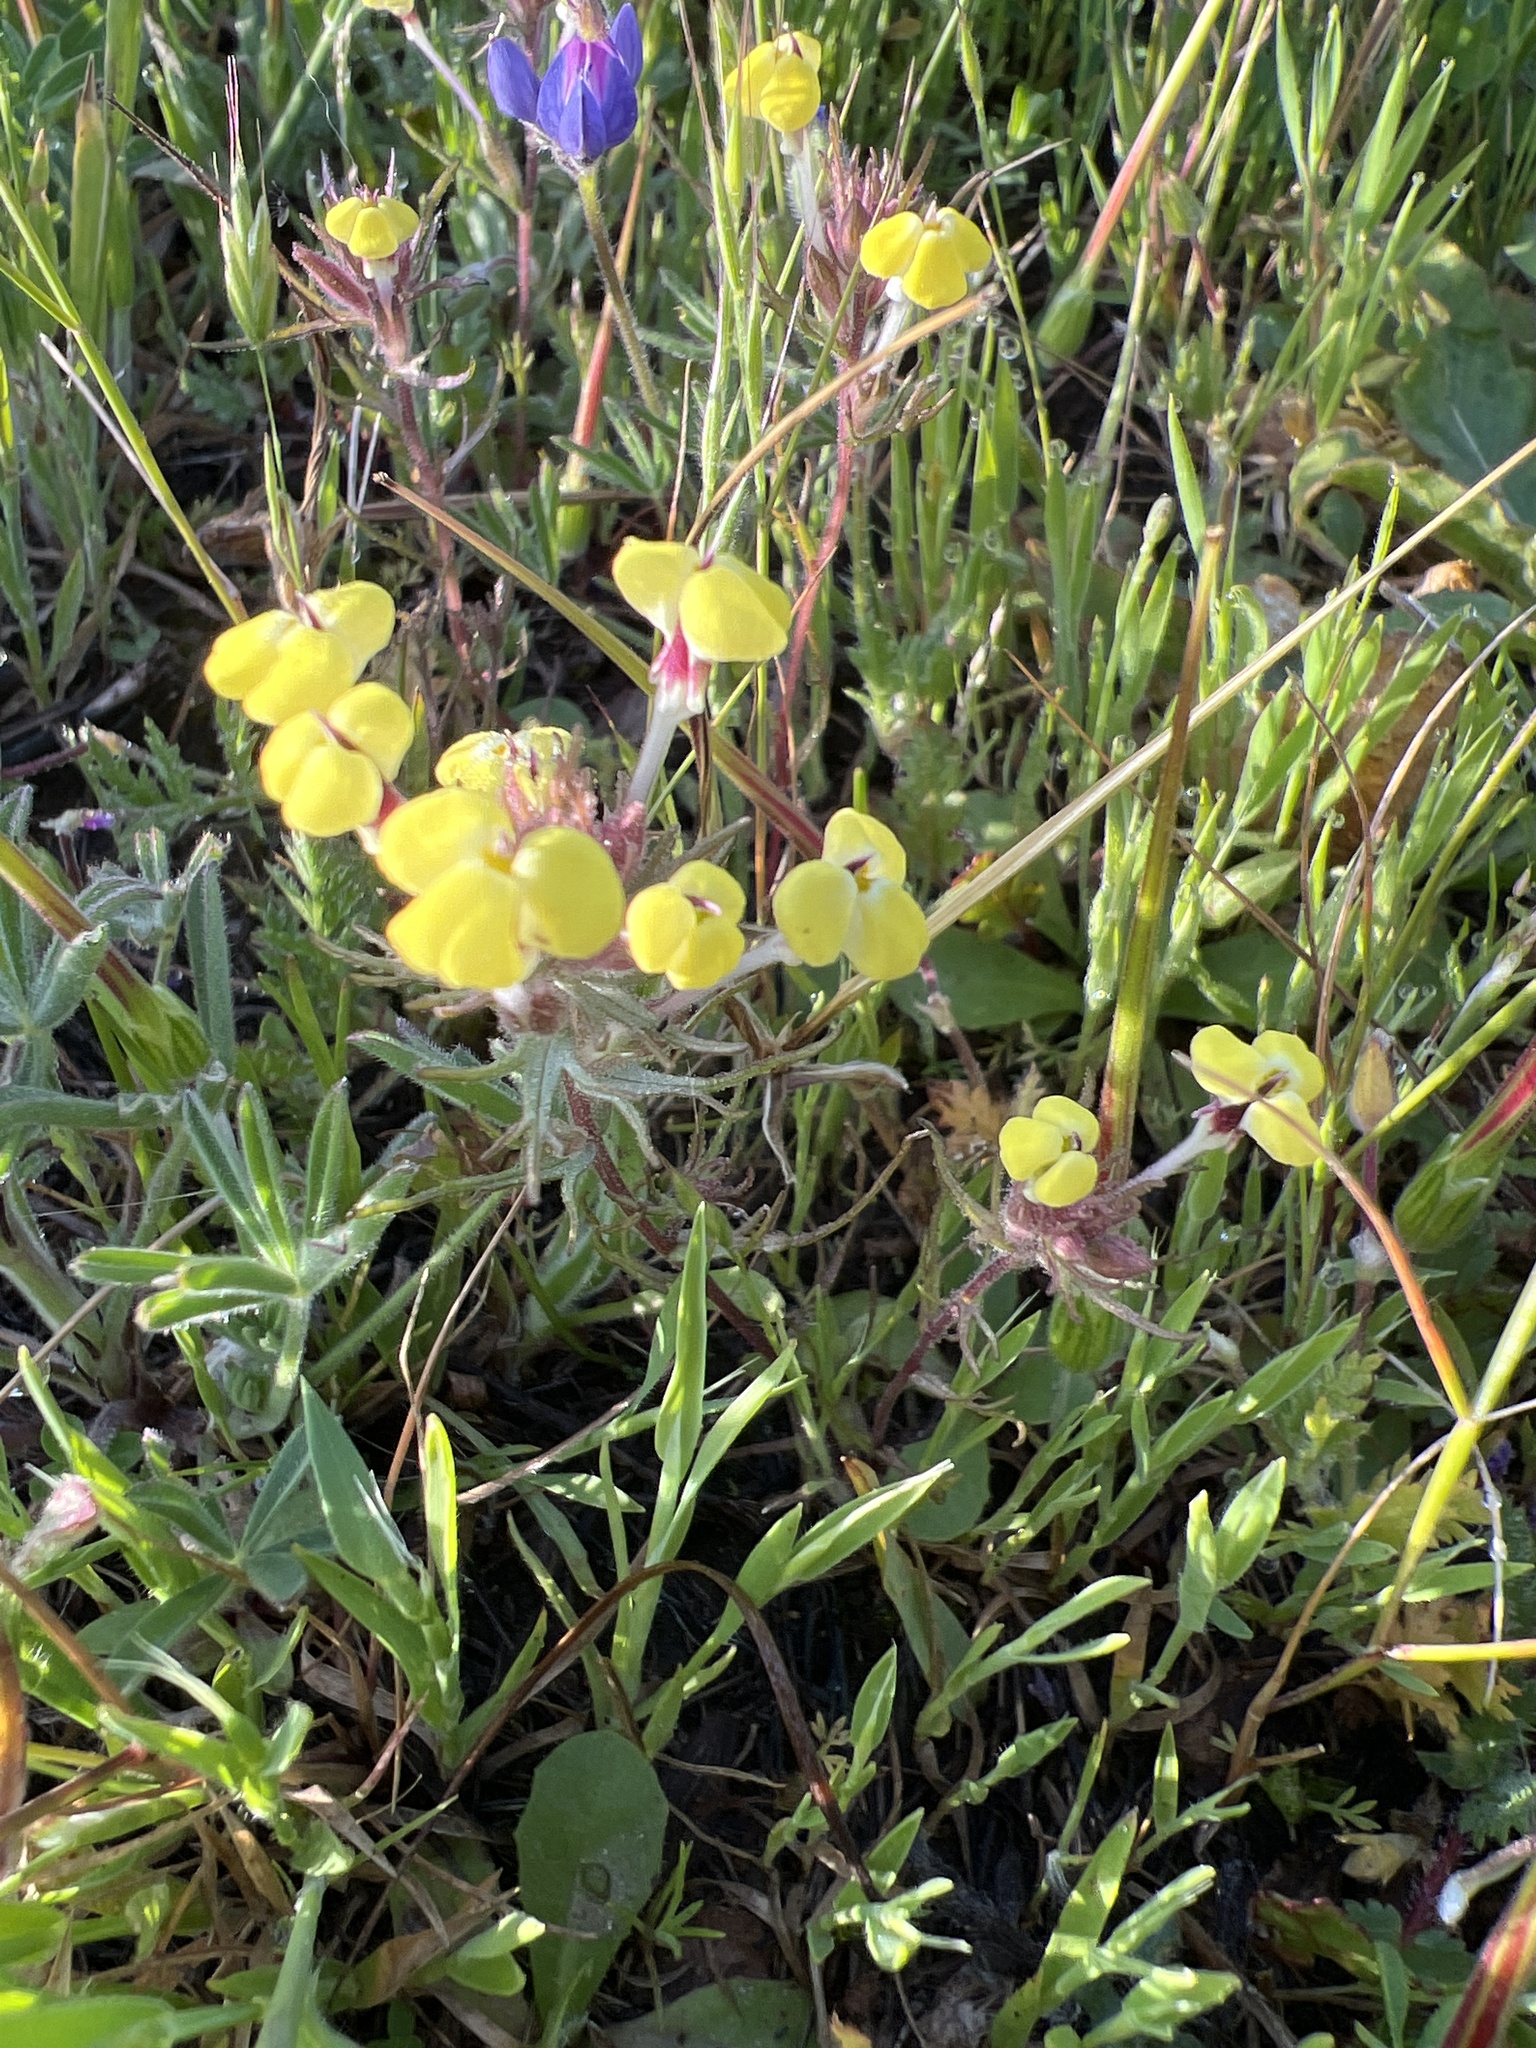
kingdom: Plantae
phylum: Tracheophyta
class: Magnoliopsida
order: Lamiales
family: Orobanchaceae
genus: Triphysaria
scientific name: Triphysaria eriantha
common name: Johnny-tuck
